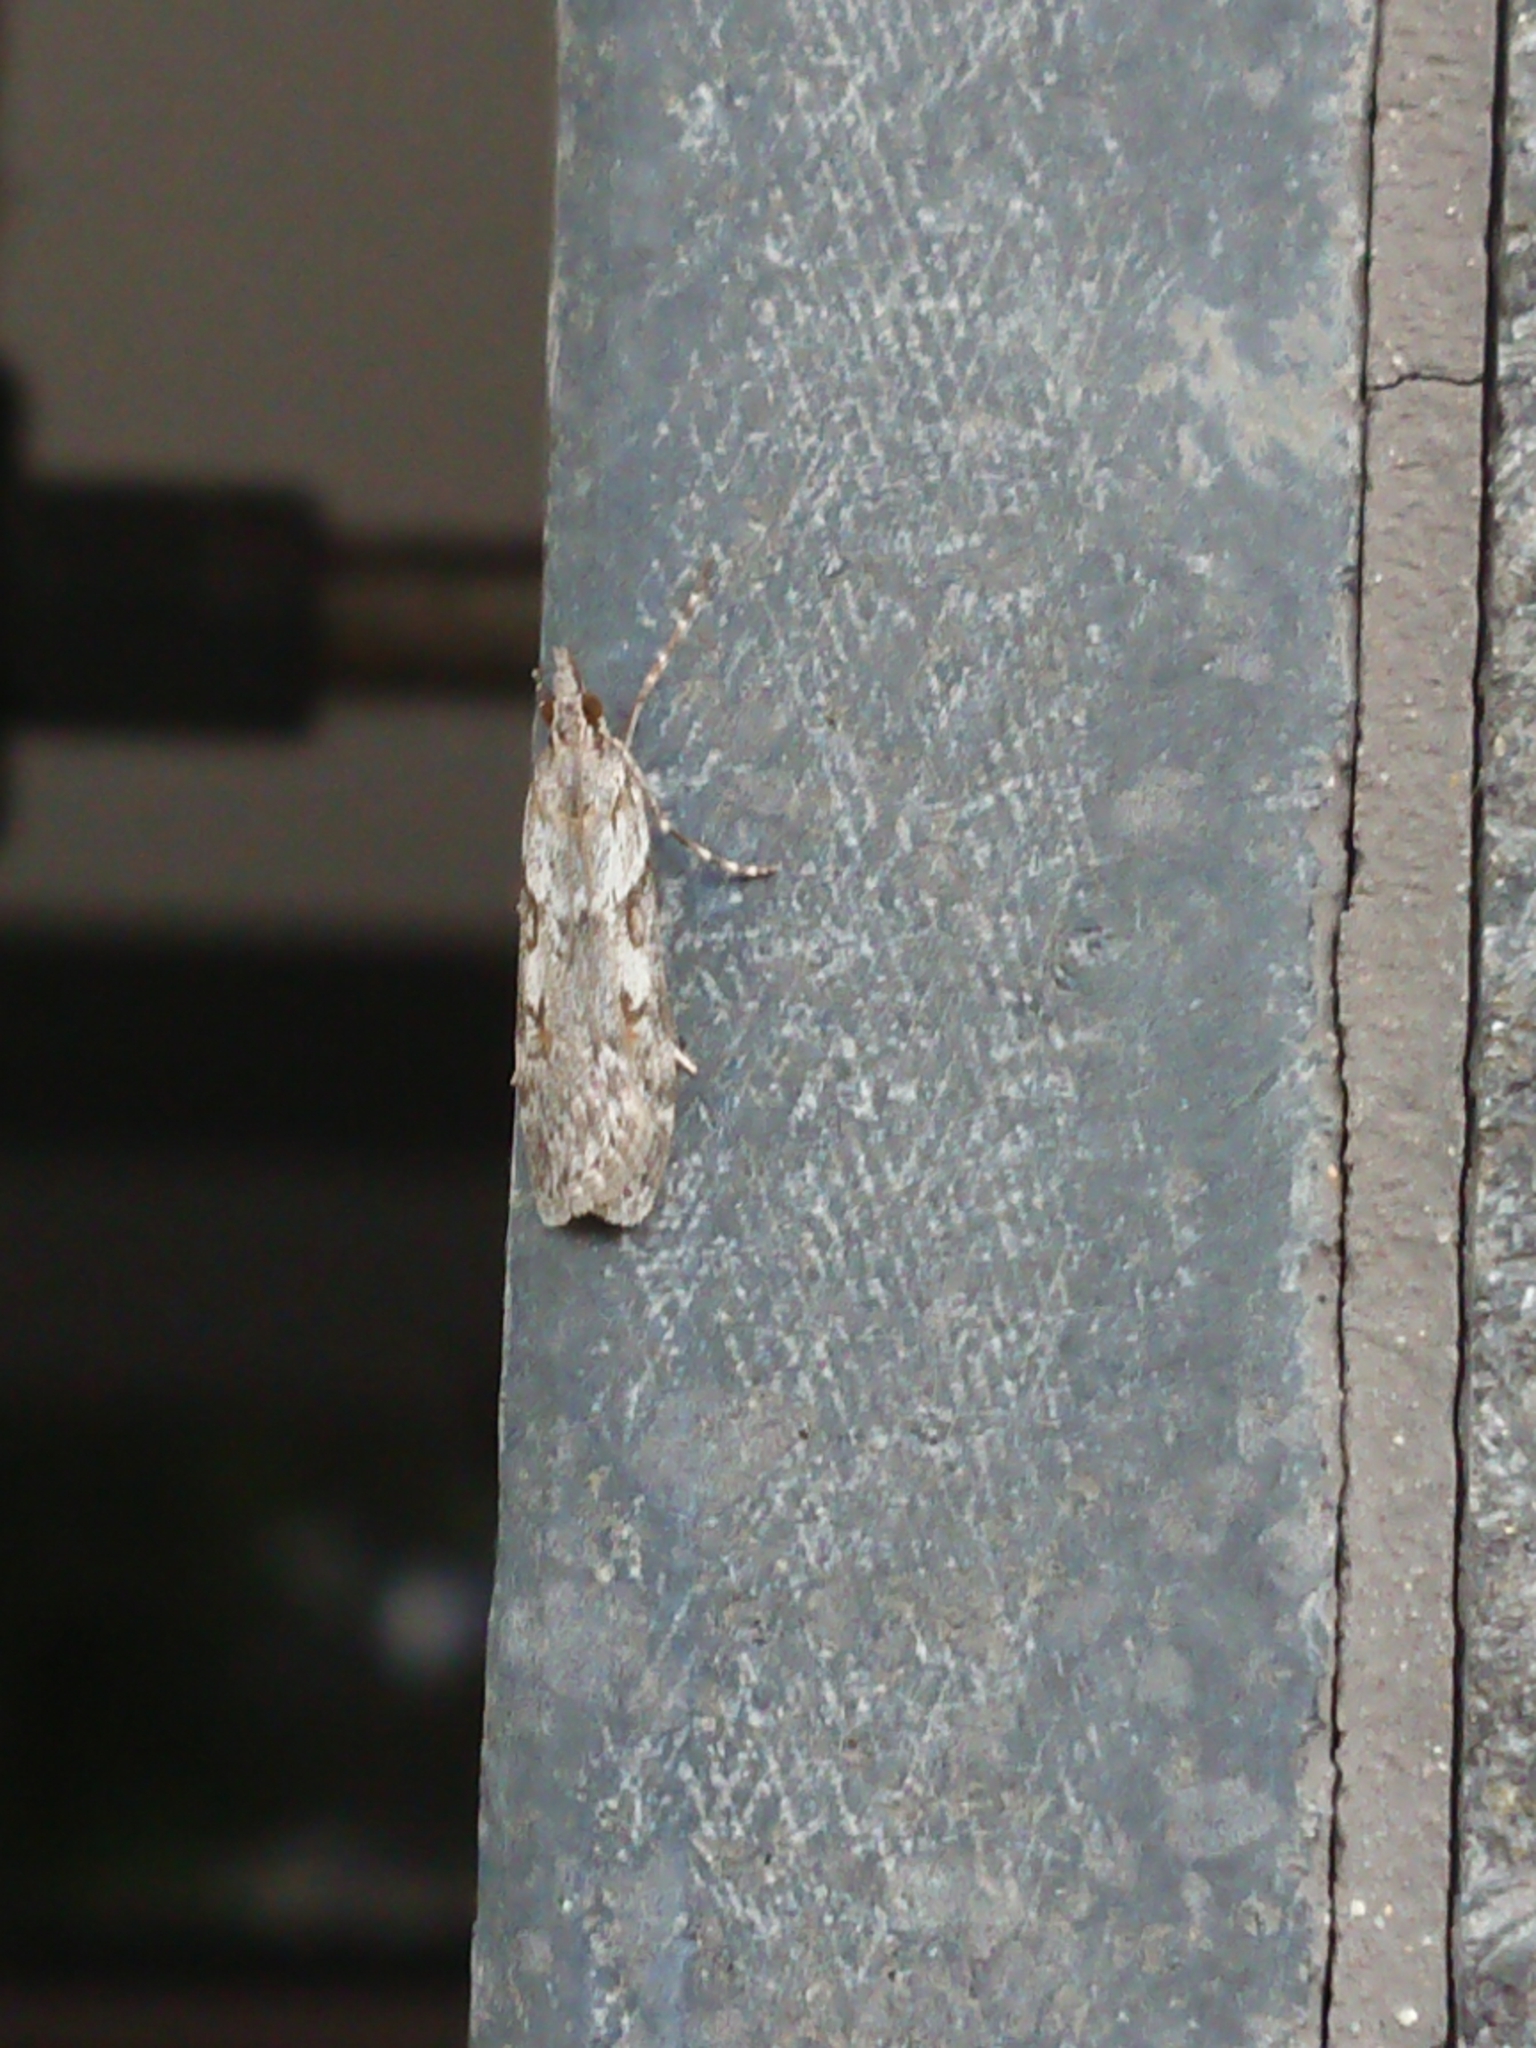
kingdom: Animalia
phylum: Arthropoda
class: Insecta
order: Lepidoptera
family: Crambidae
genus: Scoparia
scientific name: Scoparia halopis
